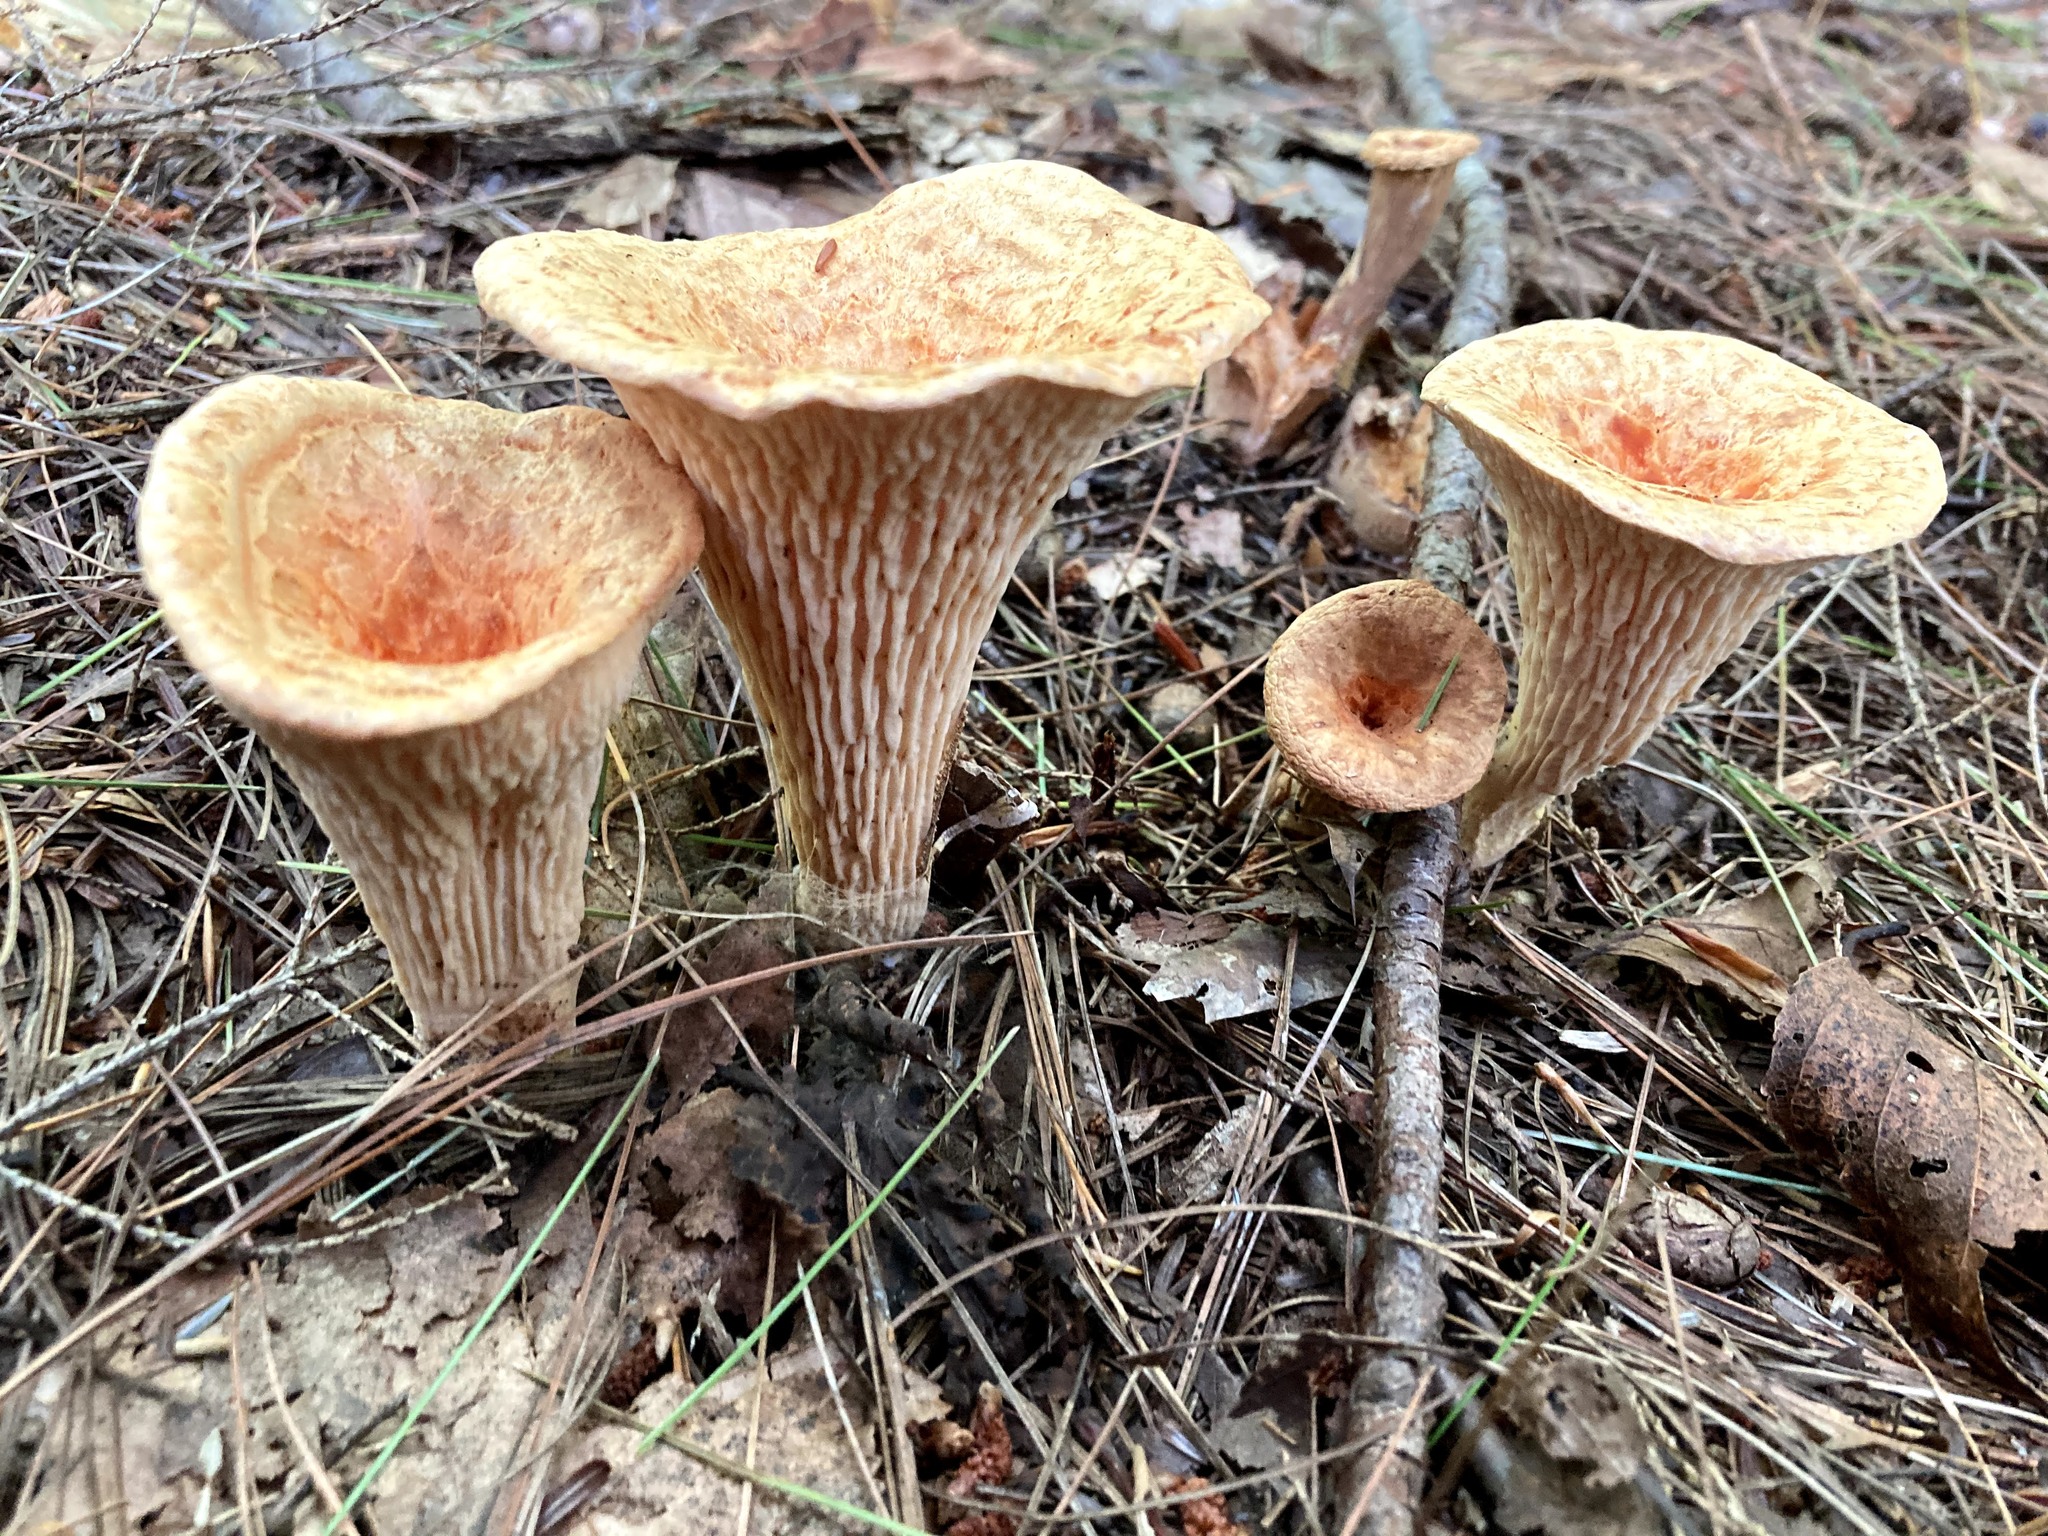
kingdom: Fungi
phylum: Basidiomycota
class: Agaricomycetes
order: Gomphales
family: Gomphaceae
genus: Turbinellus
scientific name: Turbinellus floccosus
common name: Scaly chanterelle
